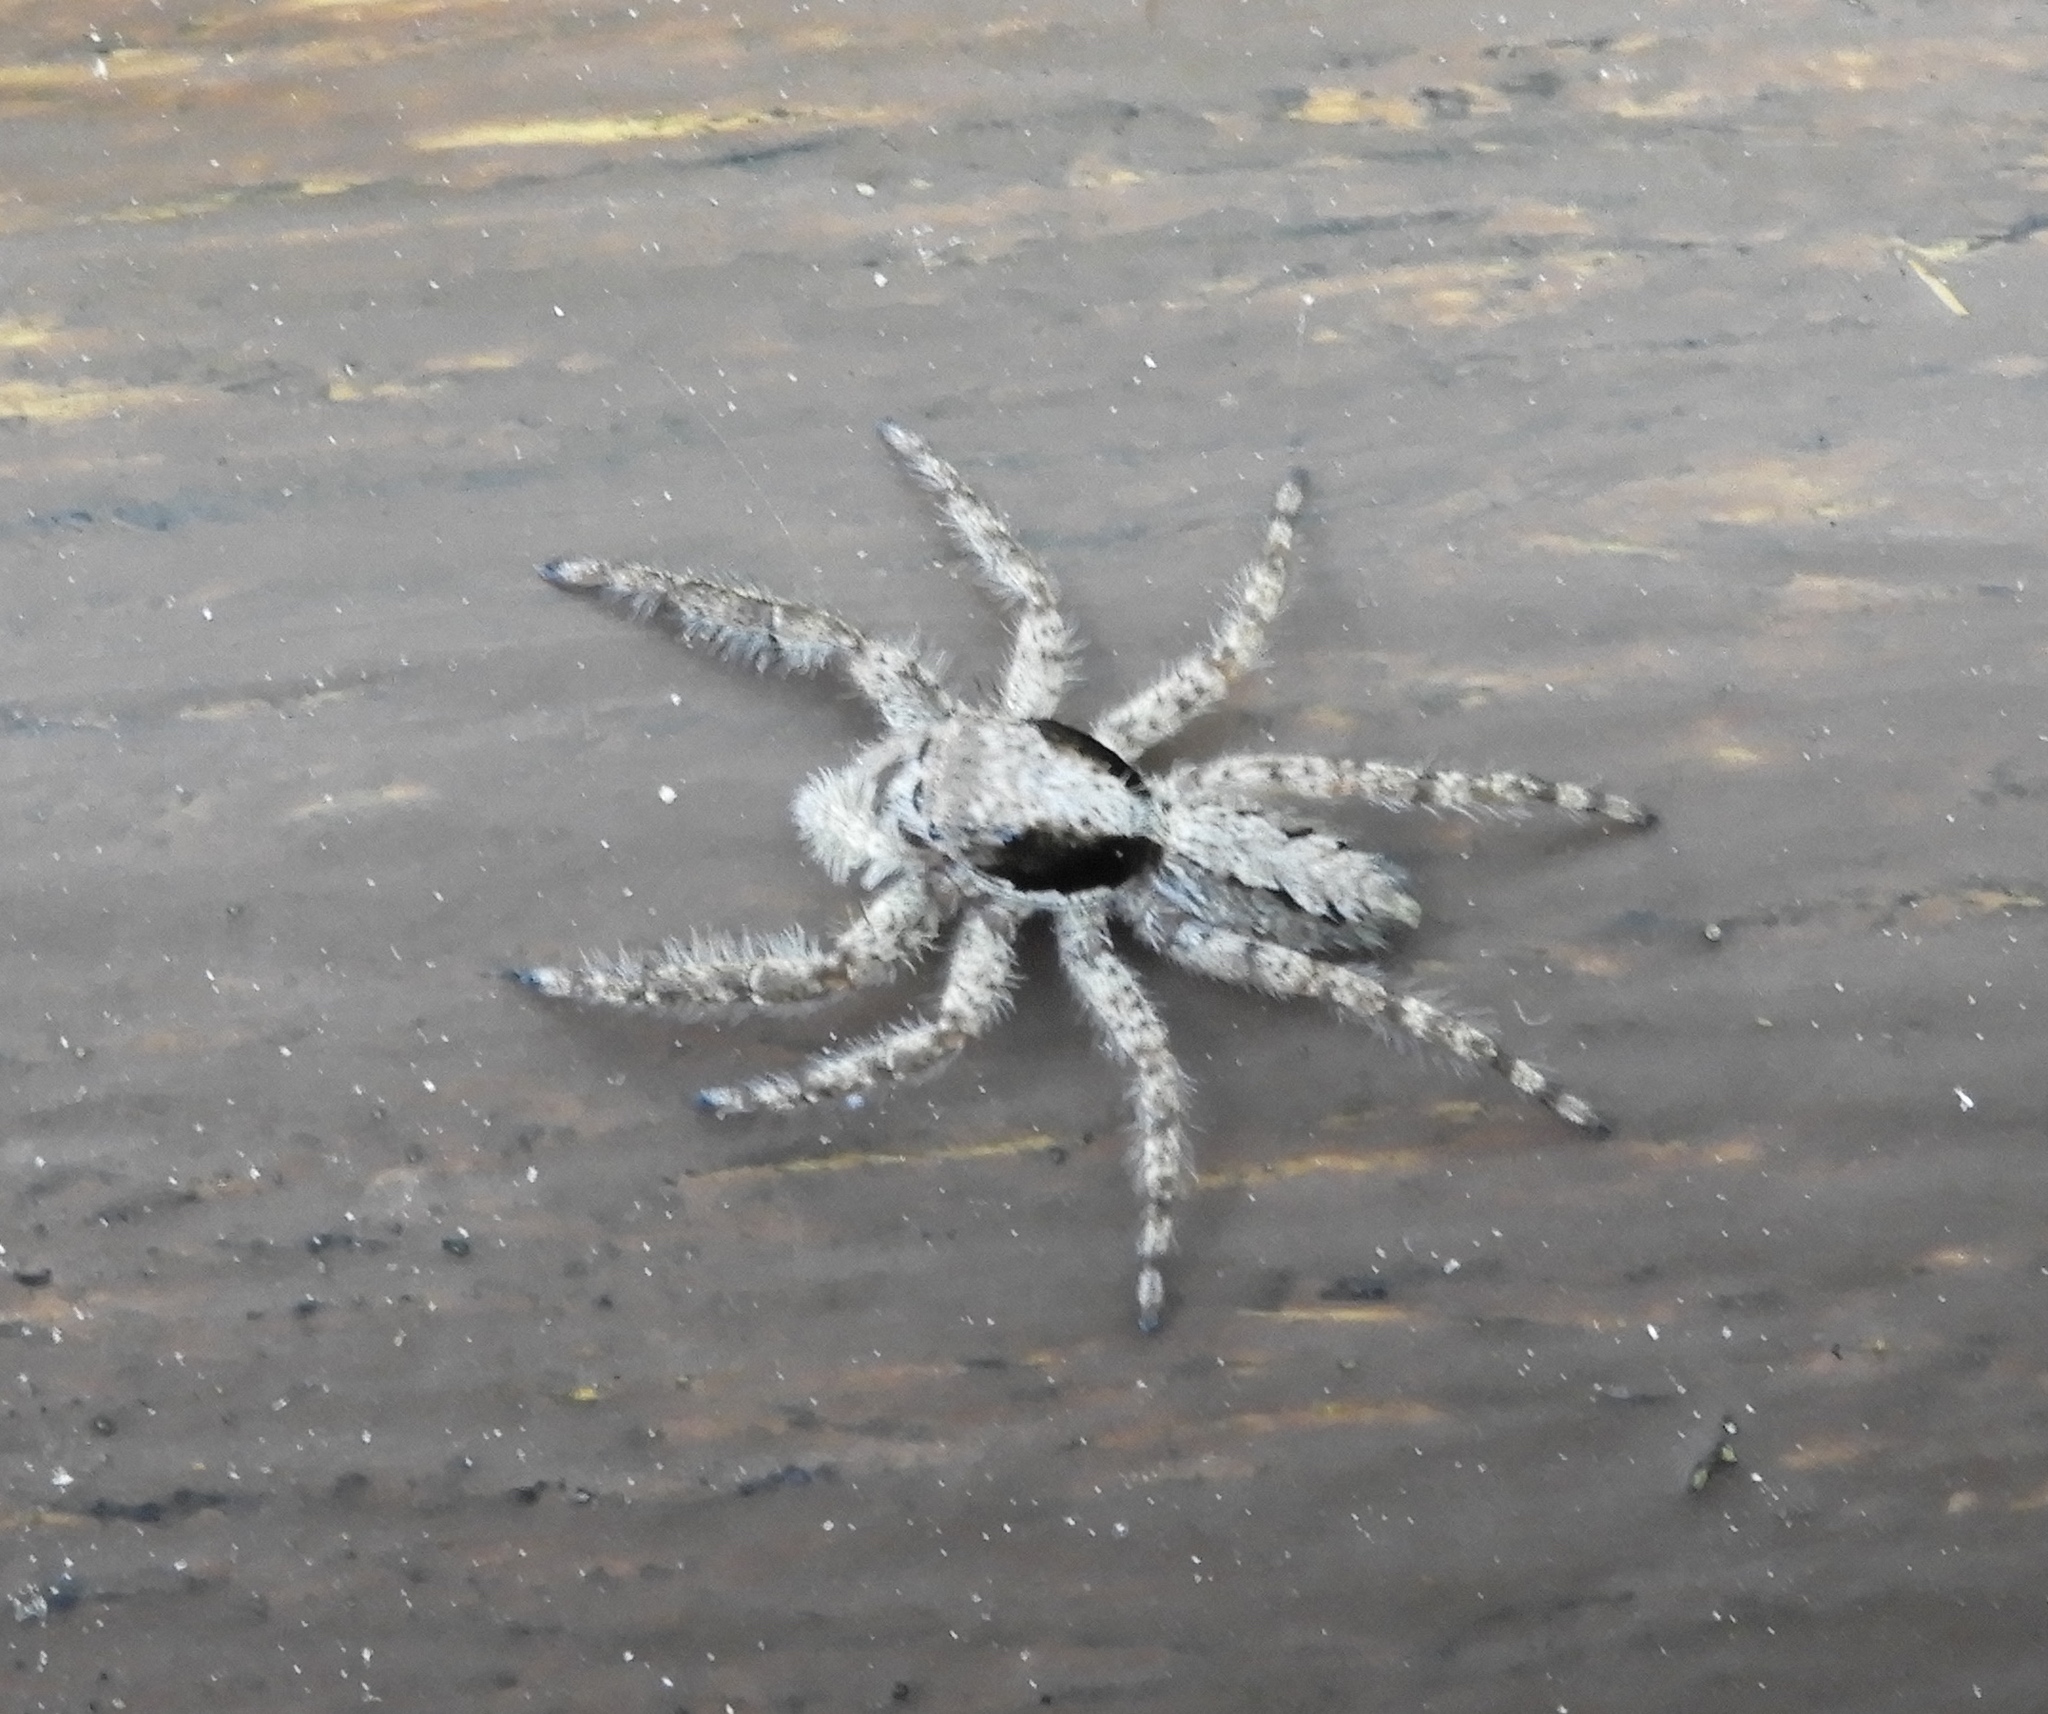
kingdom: Animalia
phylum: Arthropoda
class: Arachnida
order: Araneae
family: Salticidae
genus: Balmaceda
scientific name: Balmaceda
